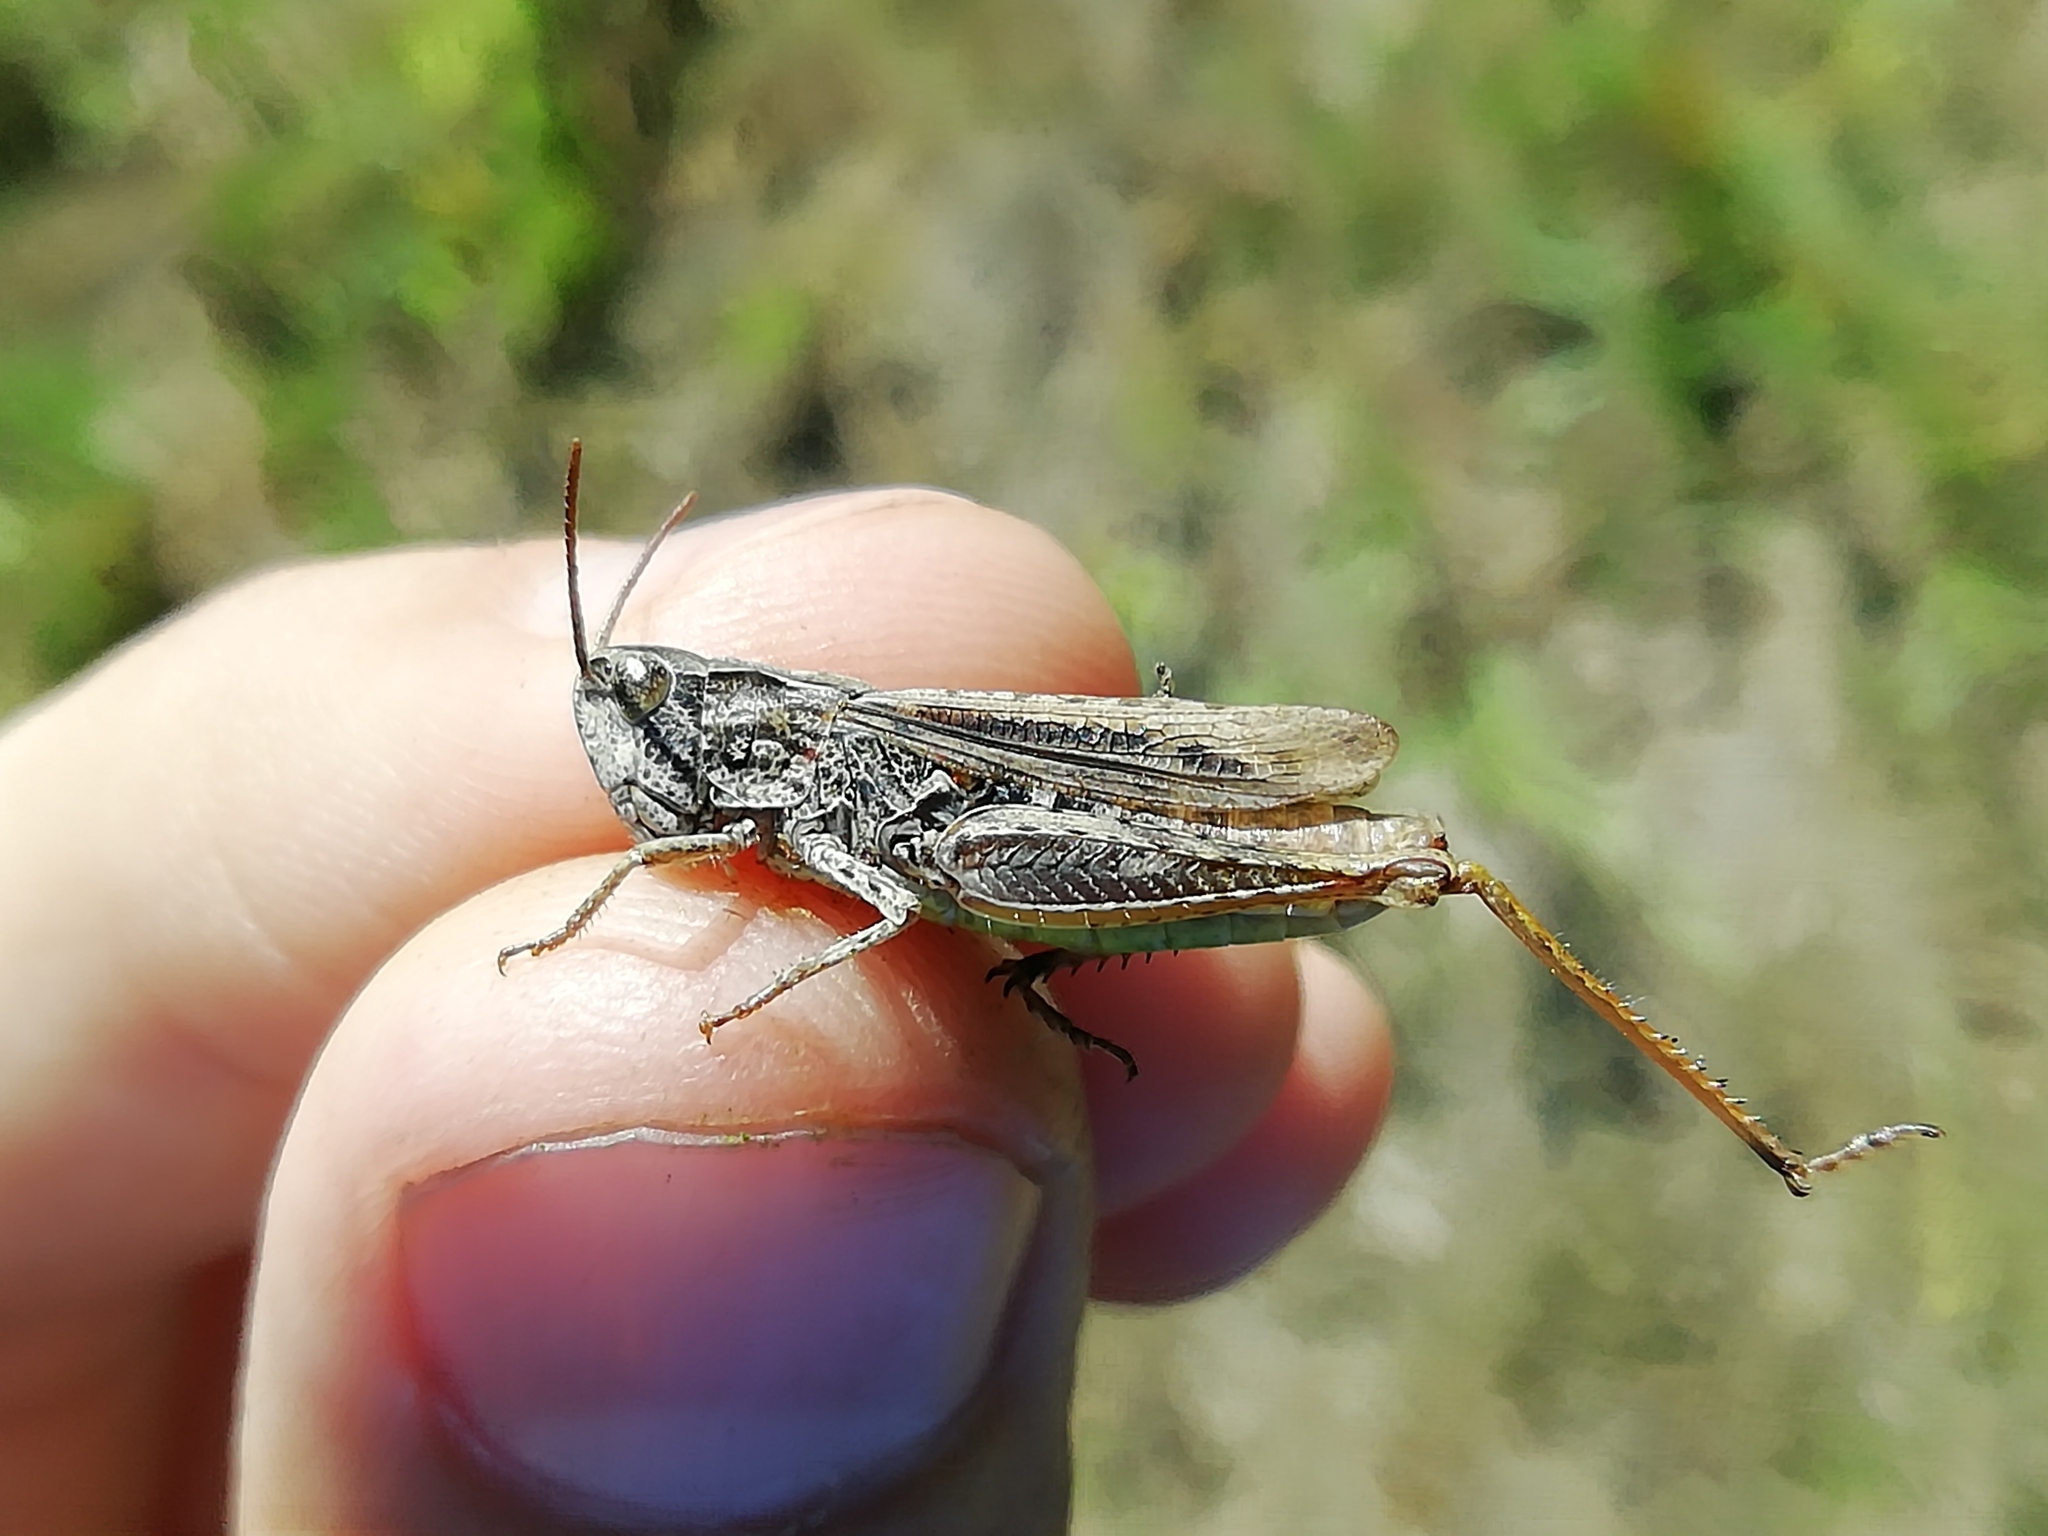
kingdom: Animalia
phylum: Arthropoda
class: Insecta
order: Orthoptera
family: Acrididae
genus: Chorthippus
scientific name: Chorthippus apricarius
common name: Upland field grasshopper
